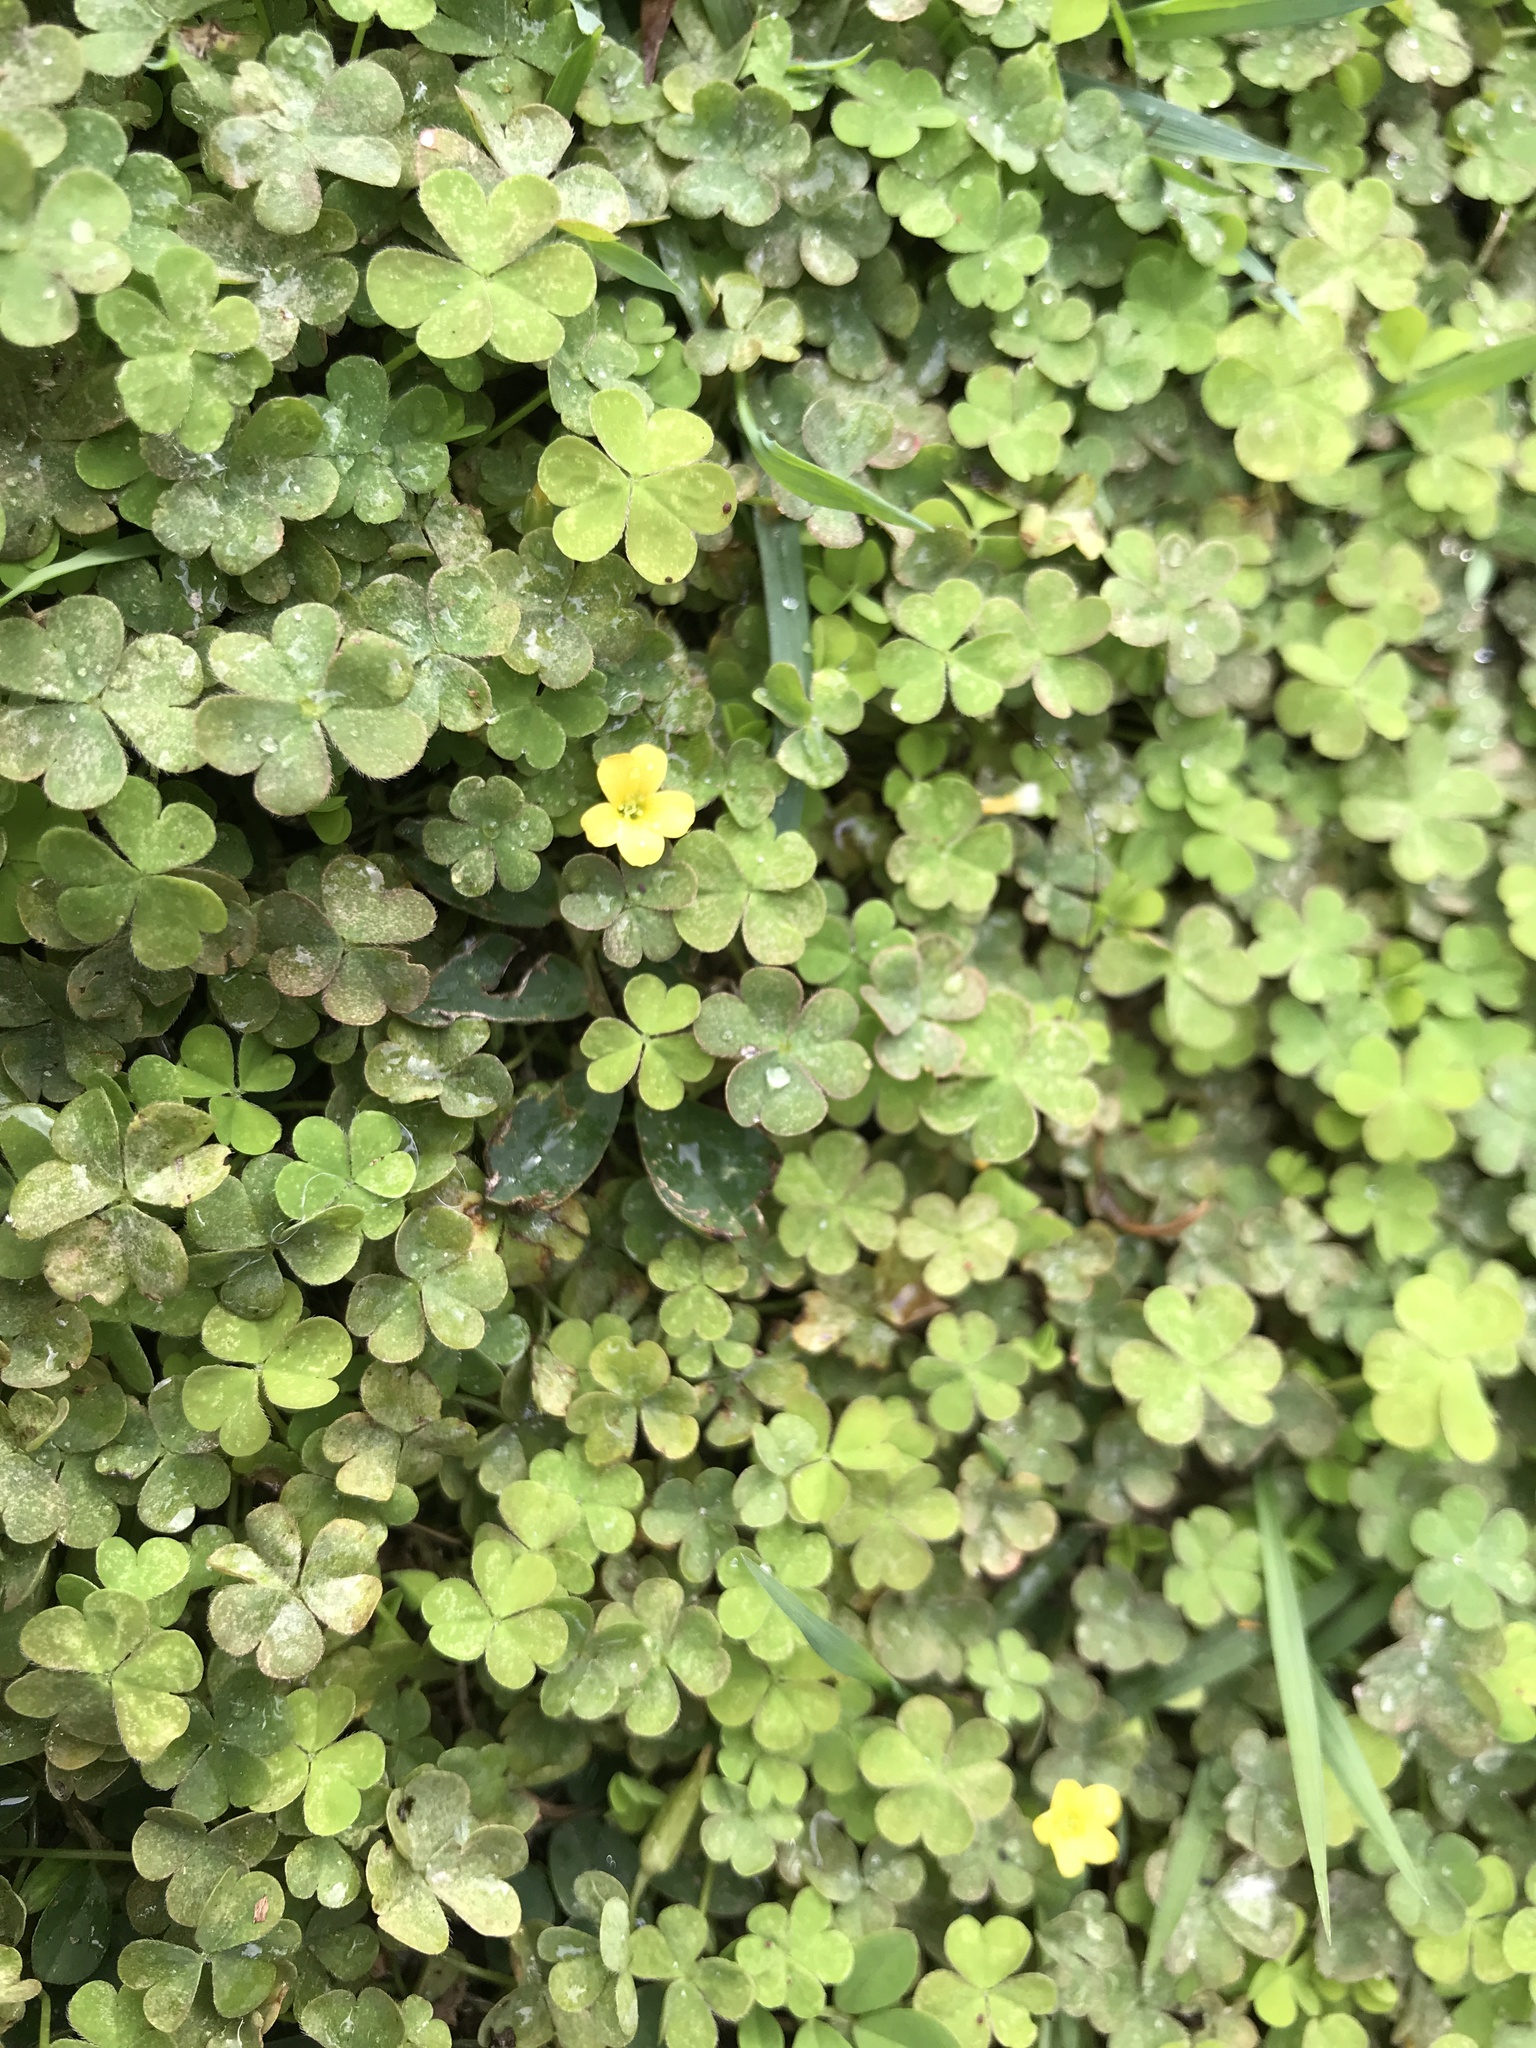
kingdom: Plantae
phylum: Tracheophyta
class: Magnoliopsida
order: Oxalidales
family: Oxalidaceae
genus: Oxalis
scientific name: Oxalis corniculata
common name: Procumbent yellow-sorrel
